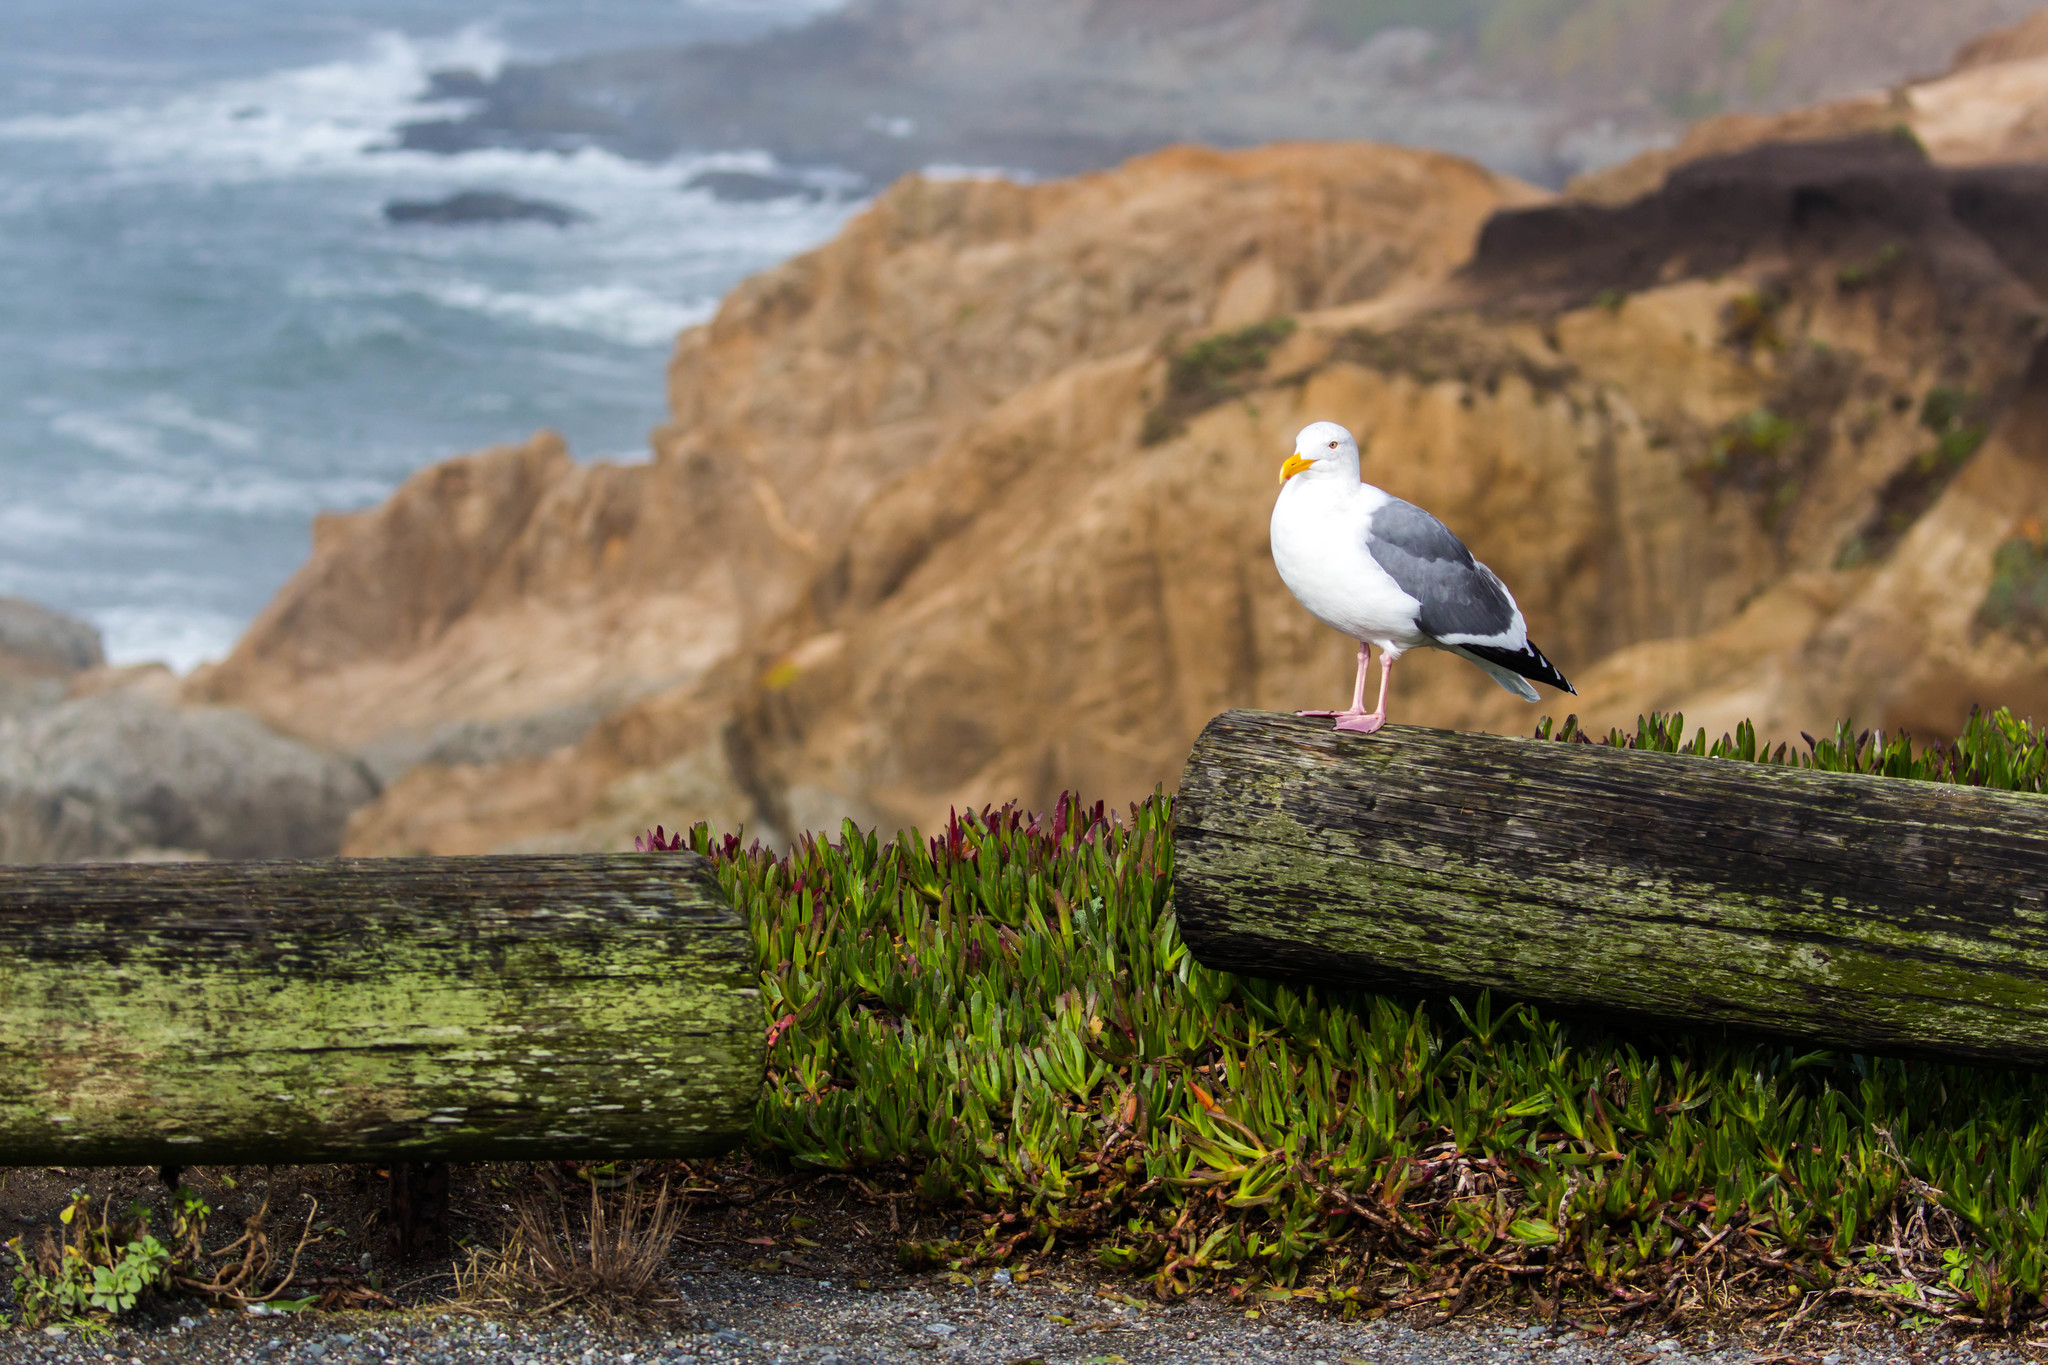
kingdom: Animalia
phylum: Chordata
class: Aves
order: Charadriiformes
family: Laridae
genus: Larus
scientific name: Larus occidentalis
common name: Western gull
